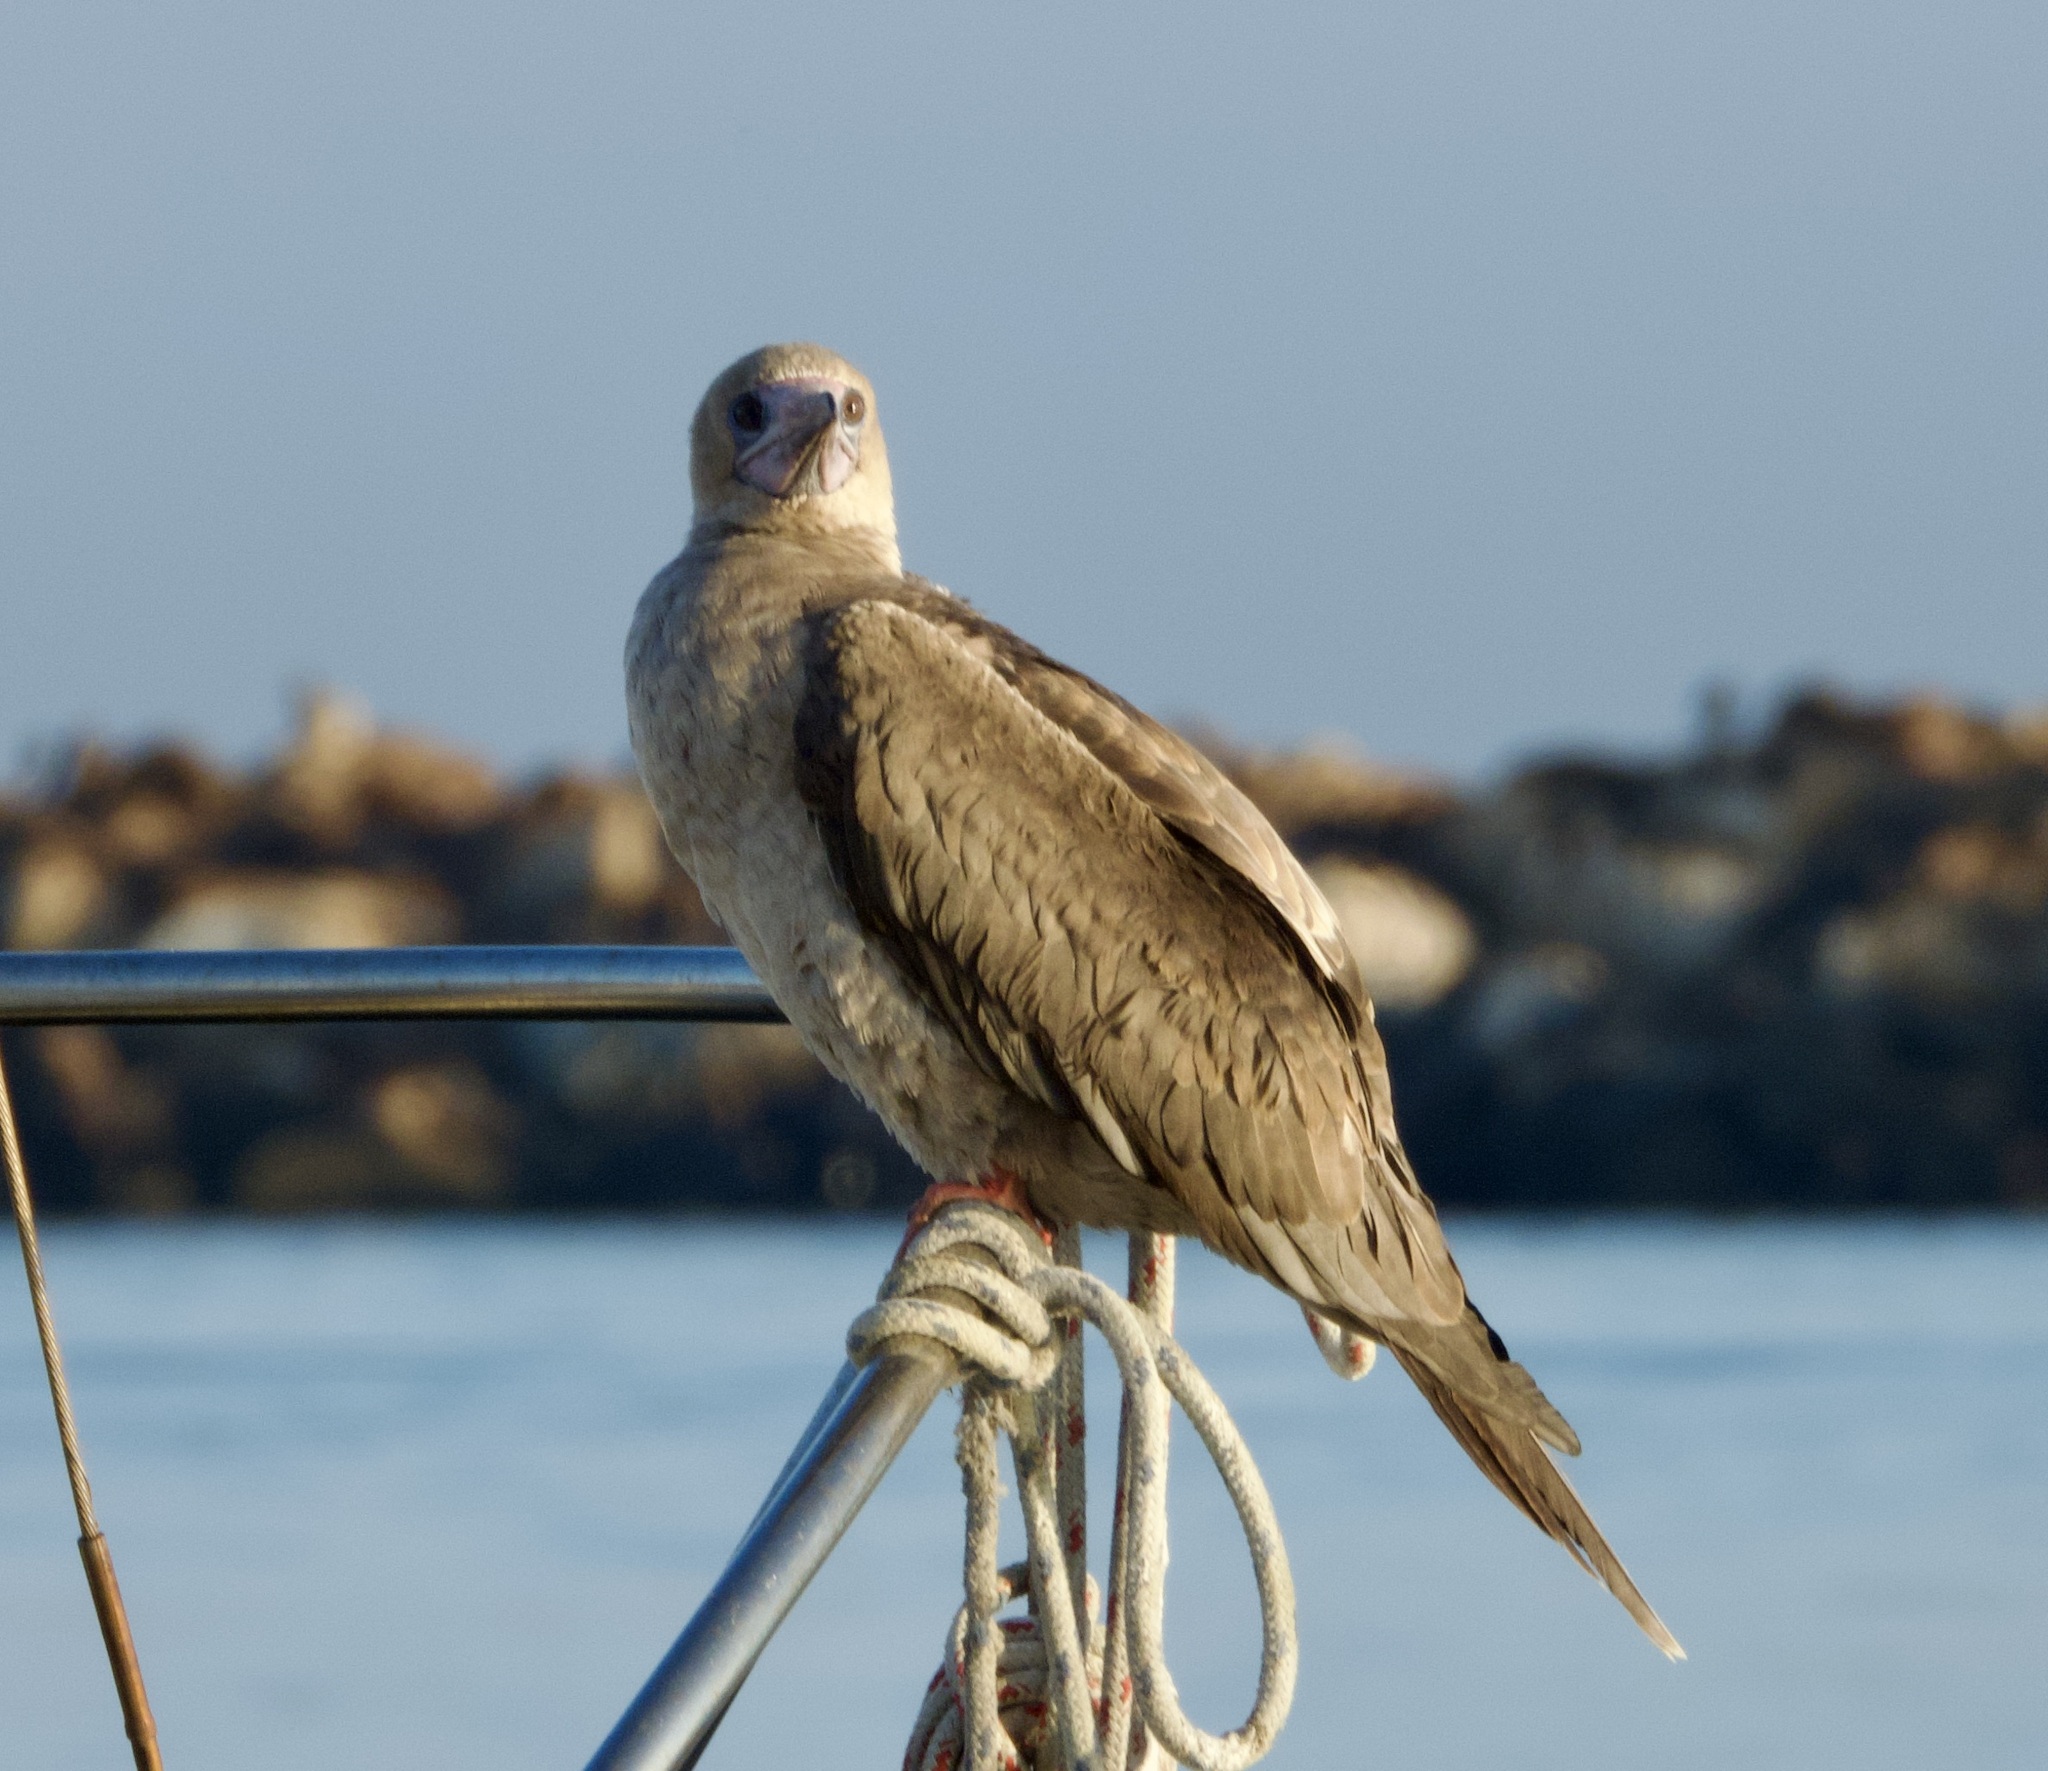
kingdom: Animalia
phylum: Chordata
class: Aves
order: Suliformes
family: Sulidae
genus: Sula
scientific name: Sula sula
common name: Red-footed booby
